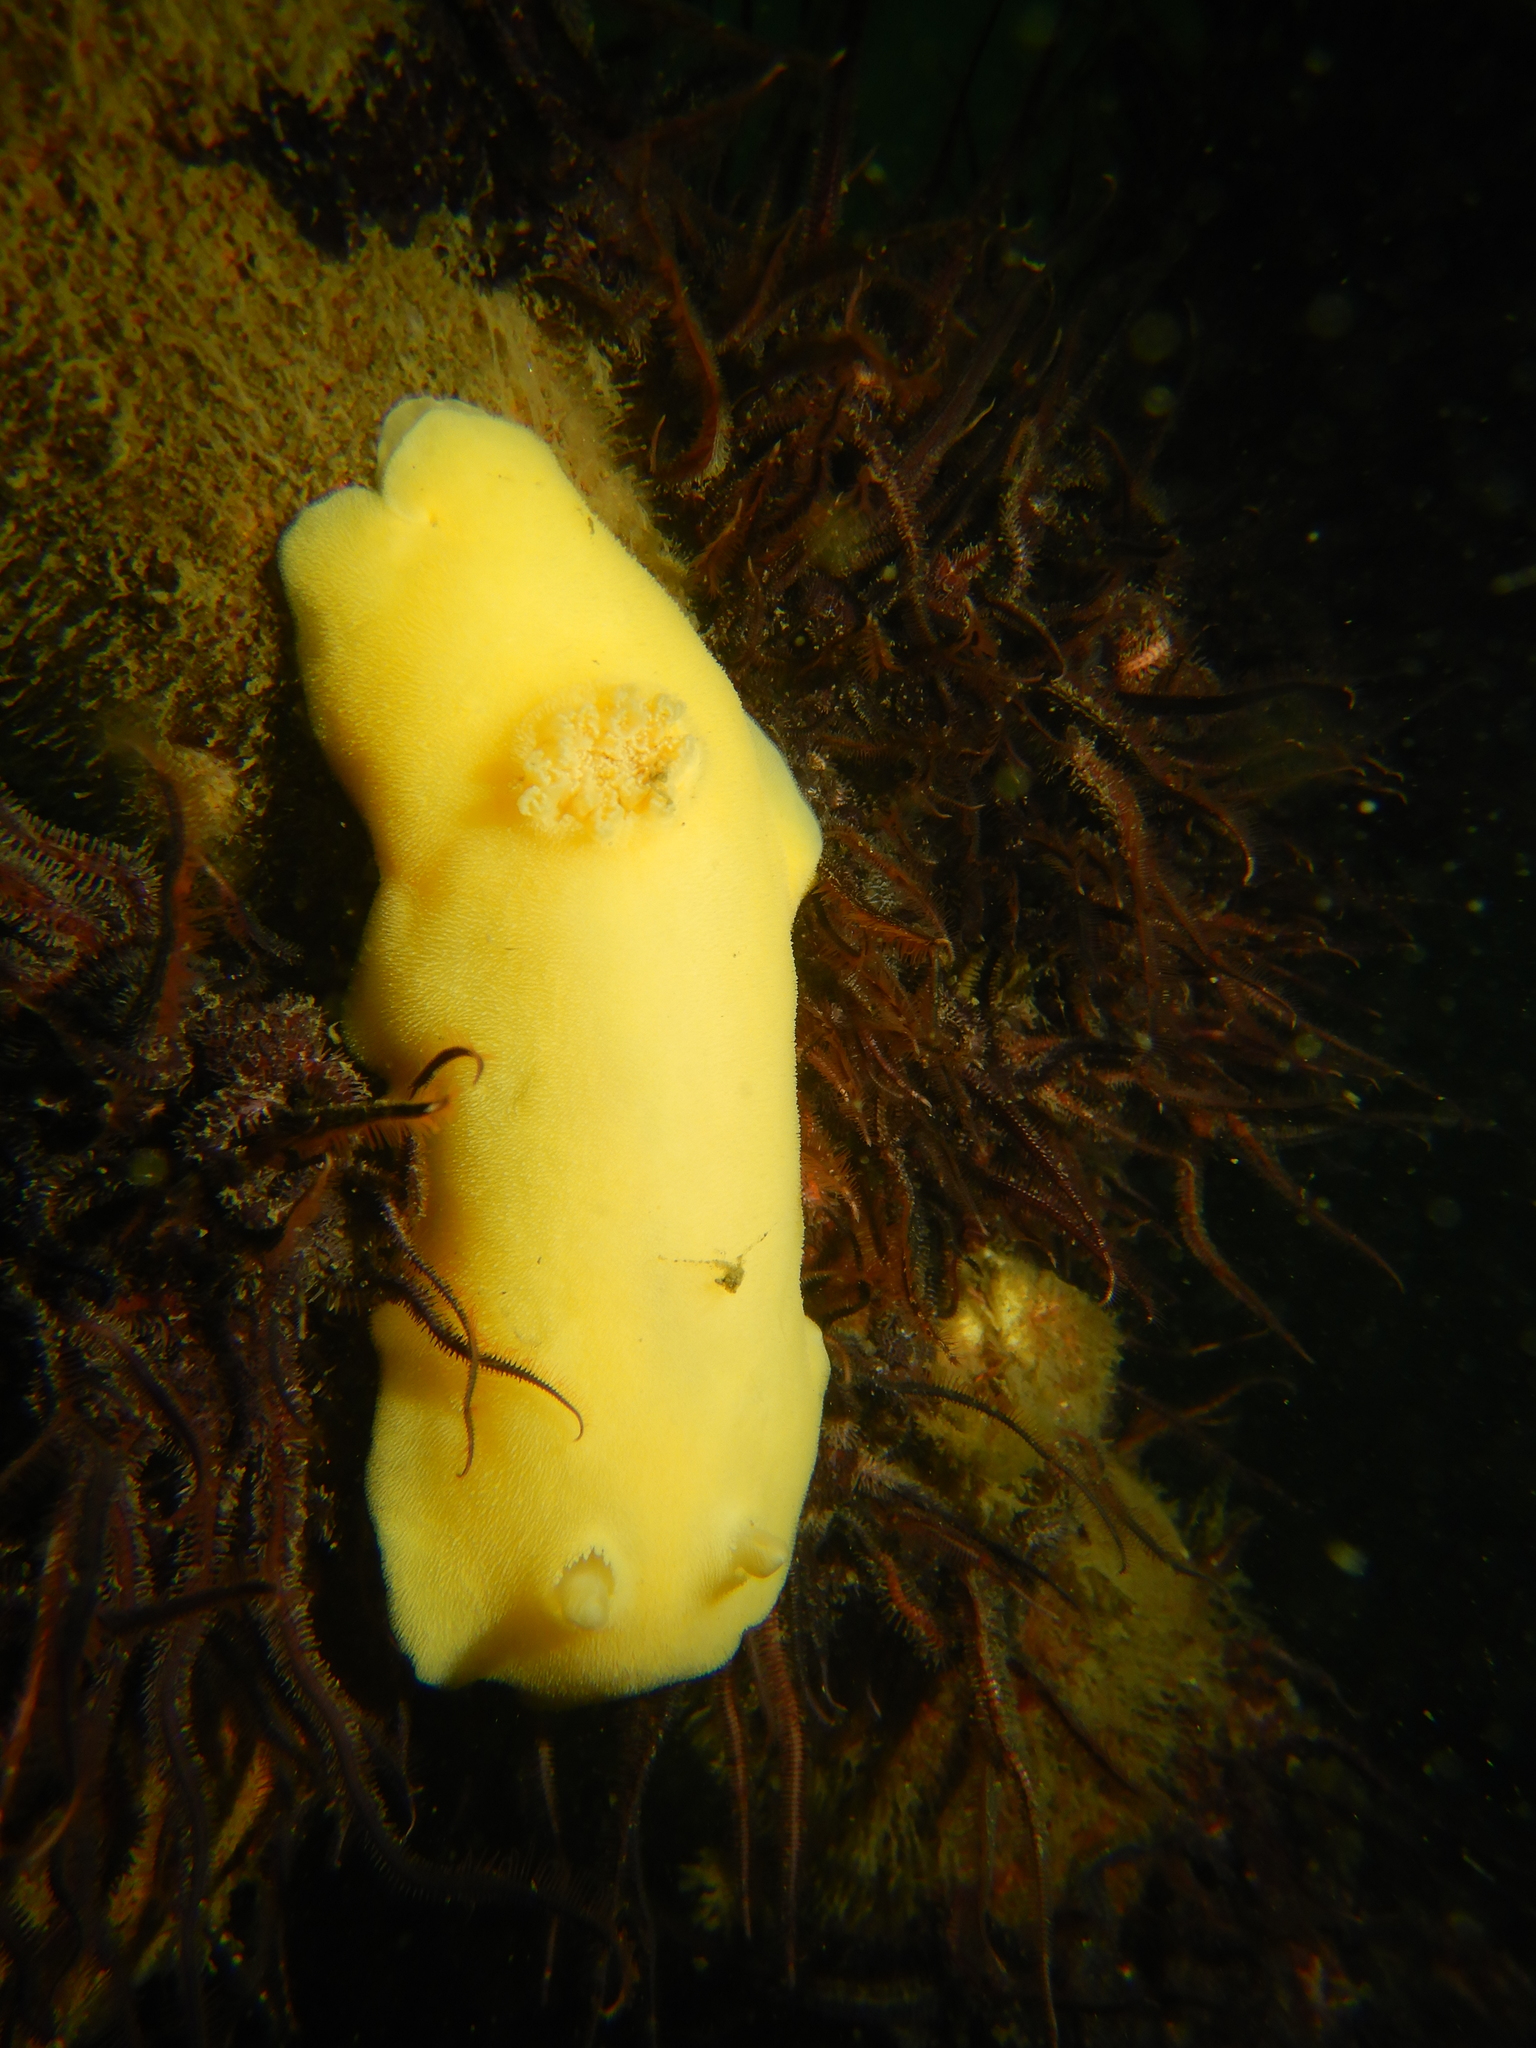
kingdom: Animalia
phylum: Mollusca
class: Gastropoda
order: Nudibranchia
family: Discodorididae
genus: Gargamella
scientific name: Gargamella immaculata
